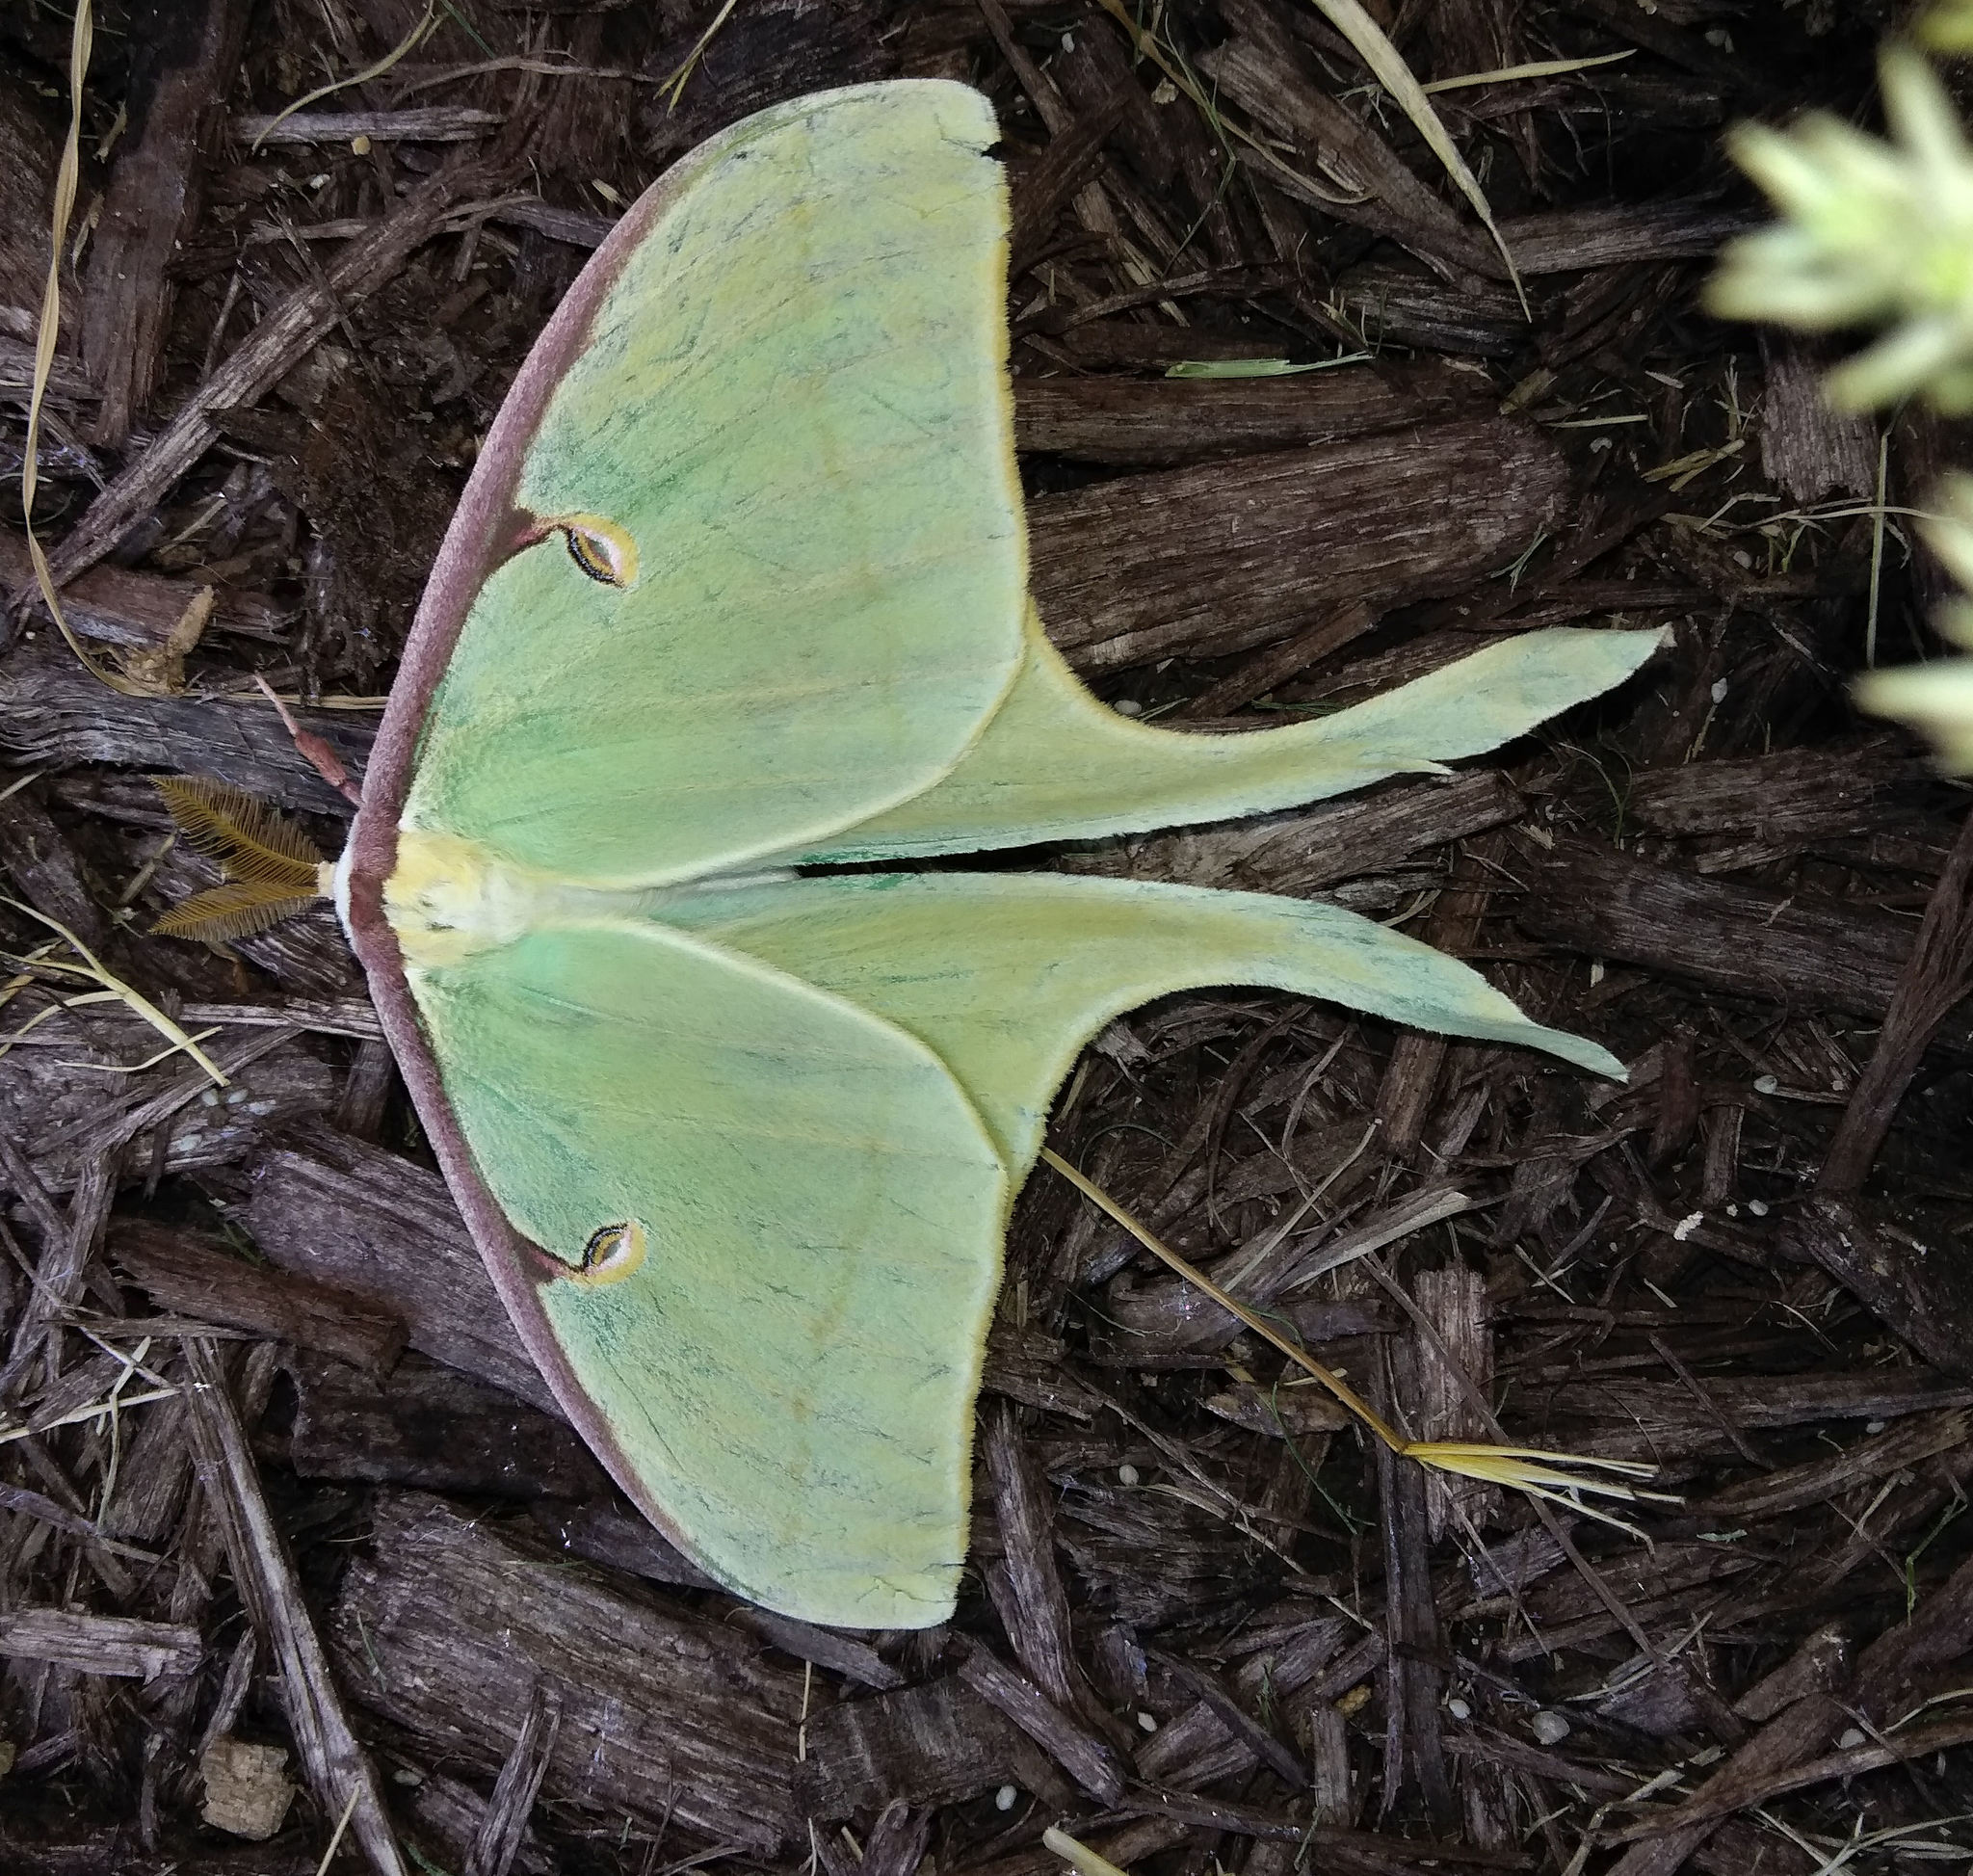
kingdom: Animalia
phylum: Arthropoda
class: Insecta
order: Lepidoptera
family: Saturniidae
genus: Actias
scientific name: Actias luna
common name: Luna moth
